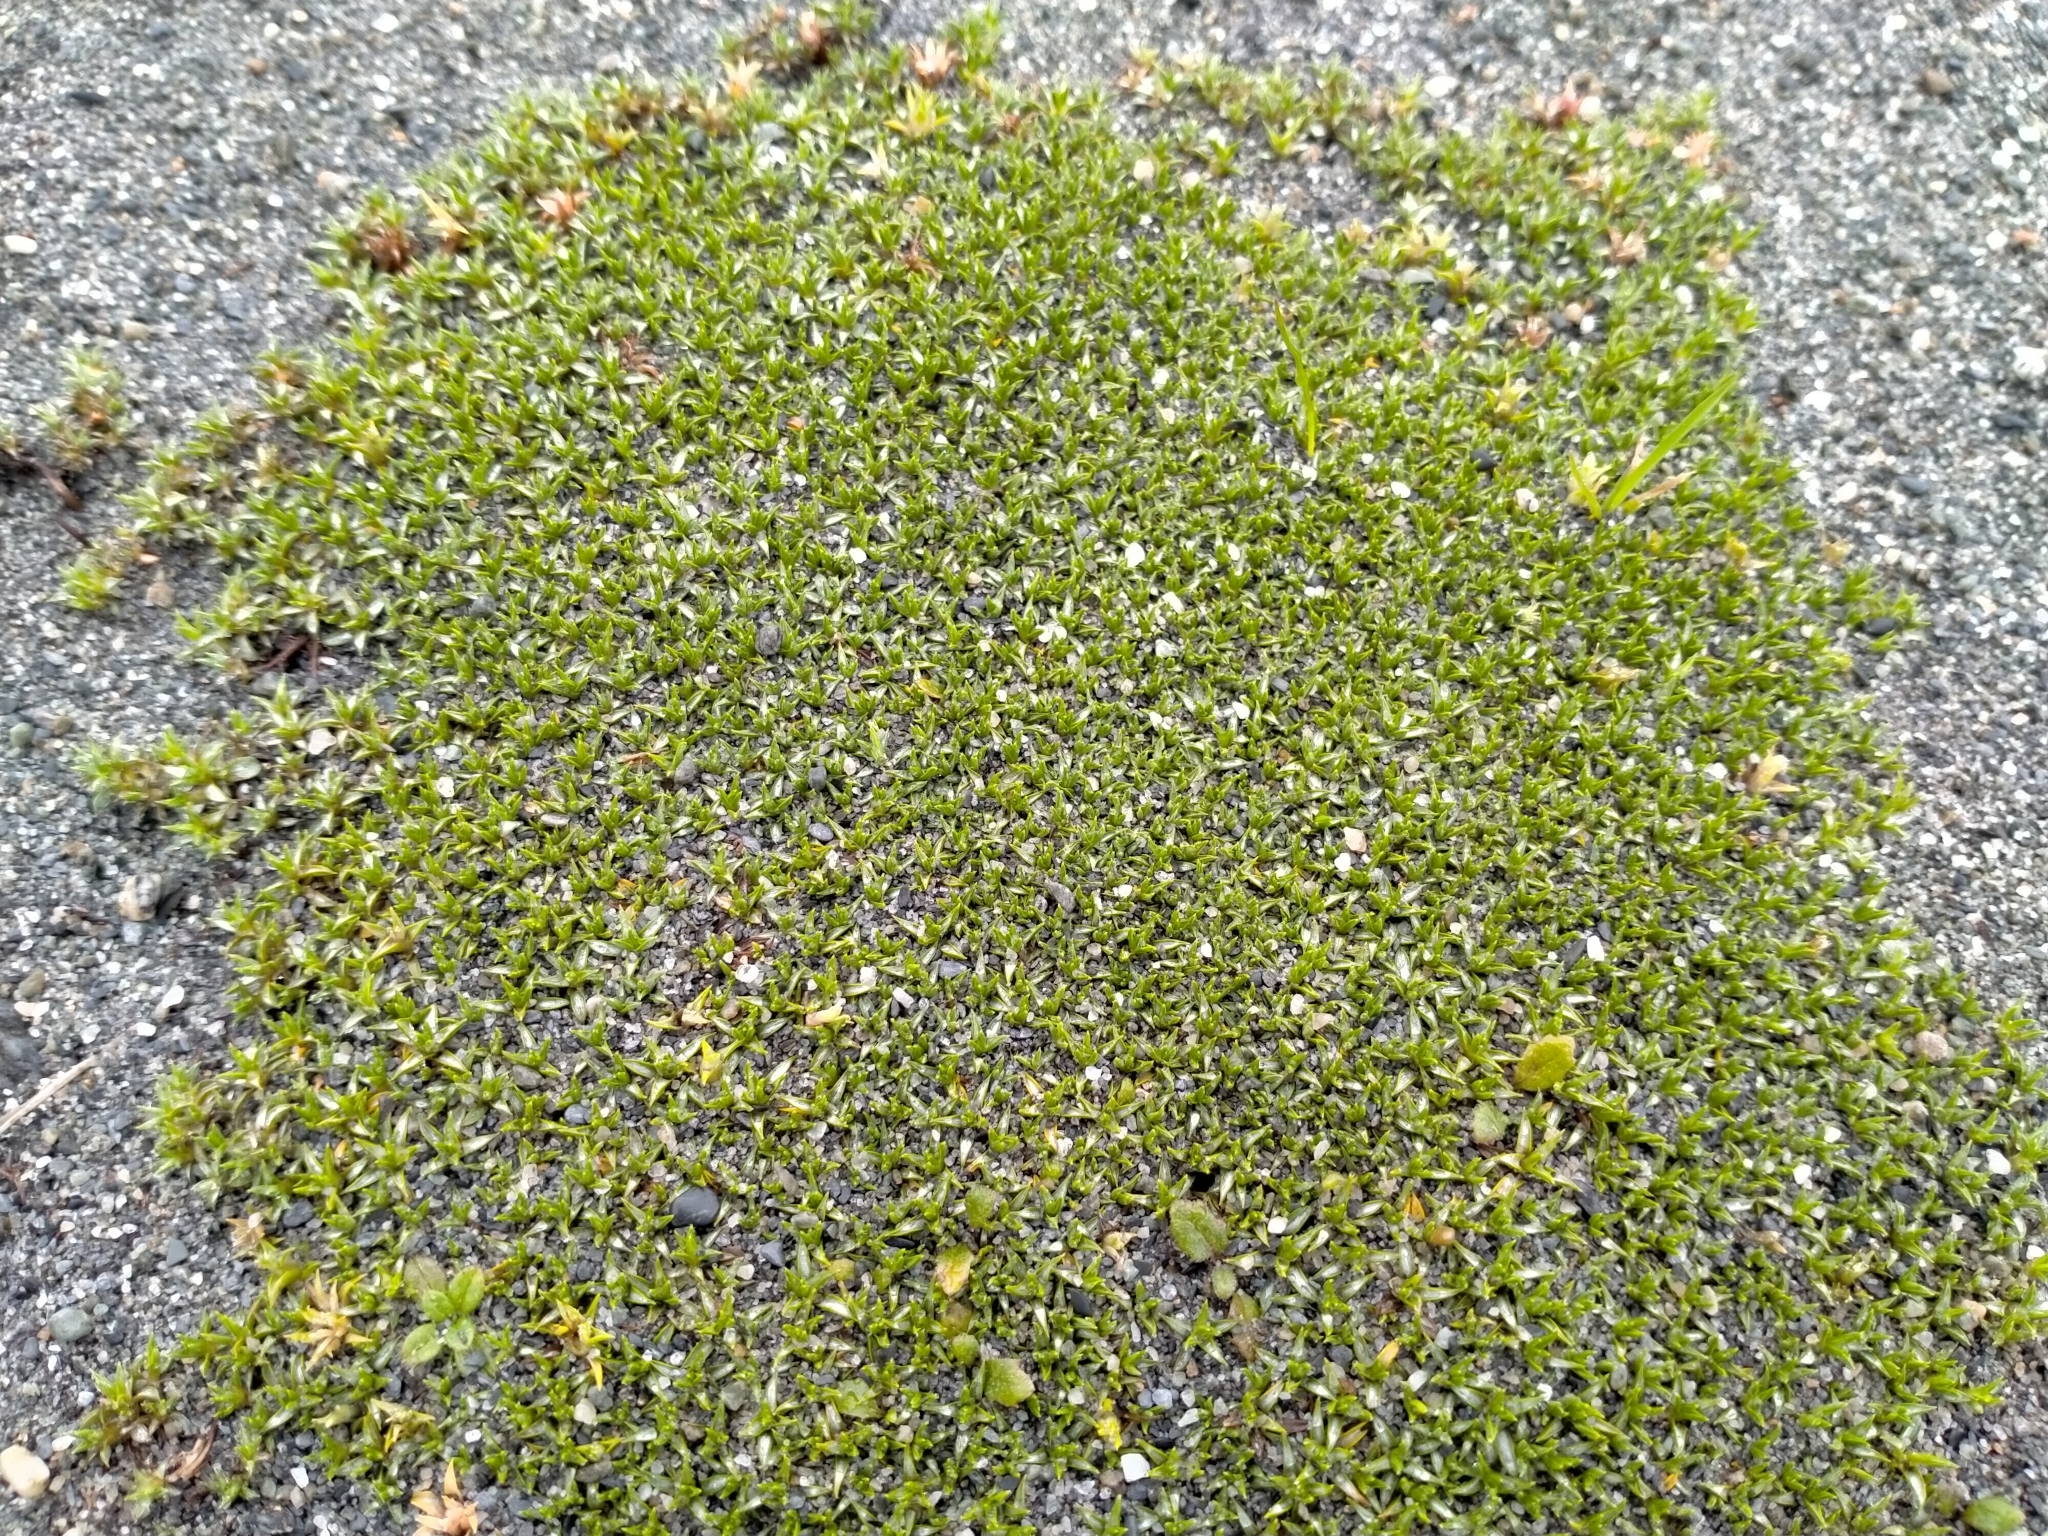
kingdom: Plantae
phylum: Tracheophyta
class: Magnoliopsida
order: Asterales
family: Asteraceae
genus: Raoulia
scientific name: Raoulia tenuicaulis
